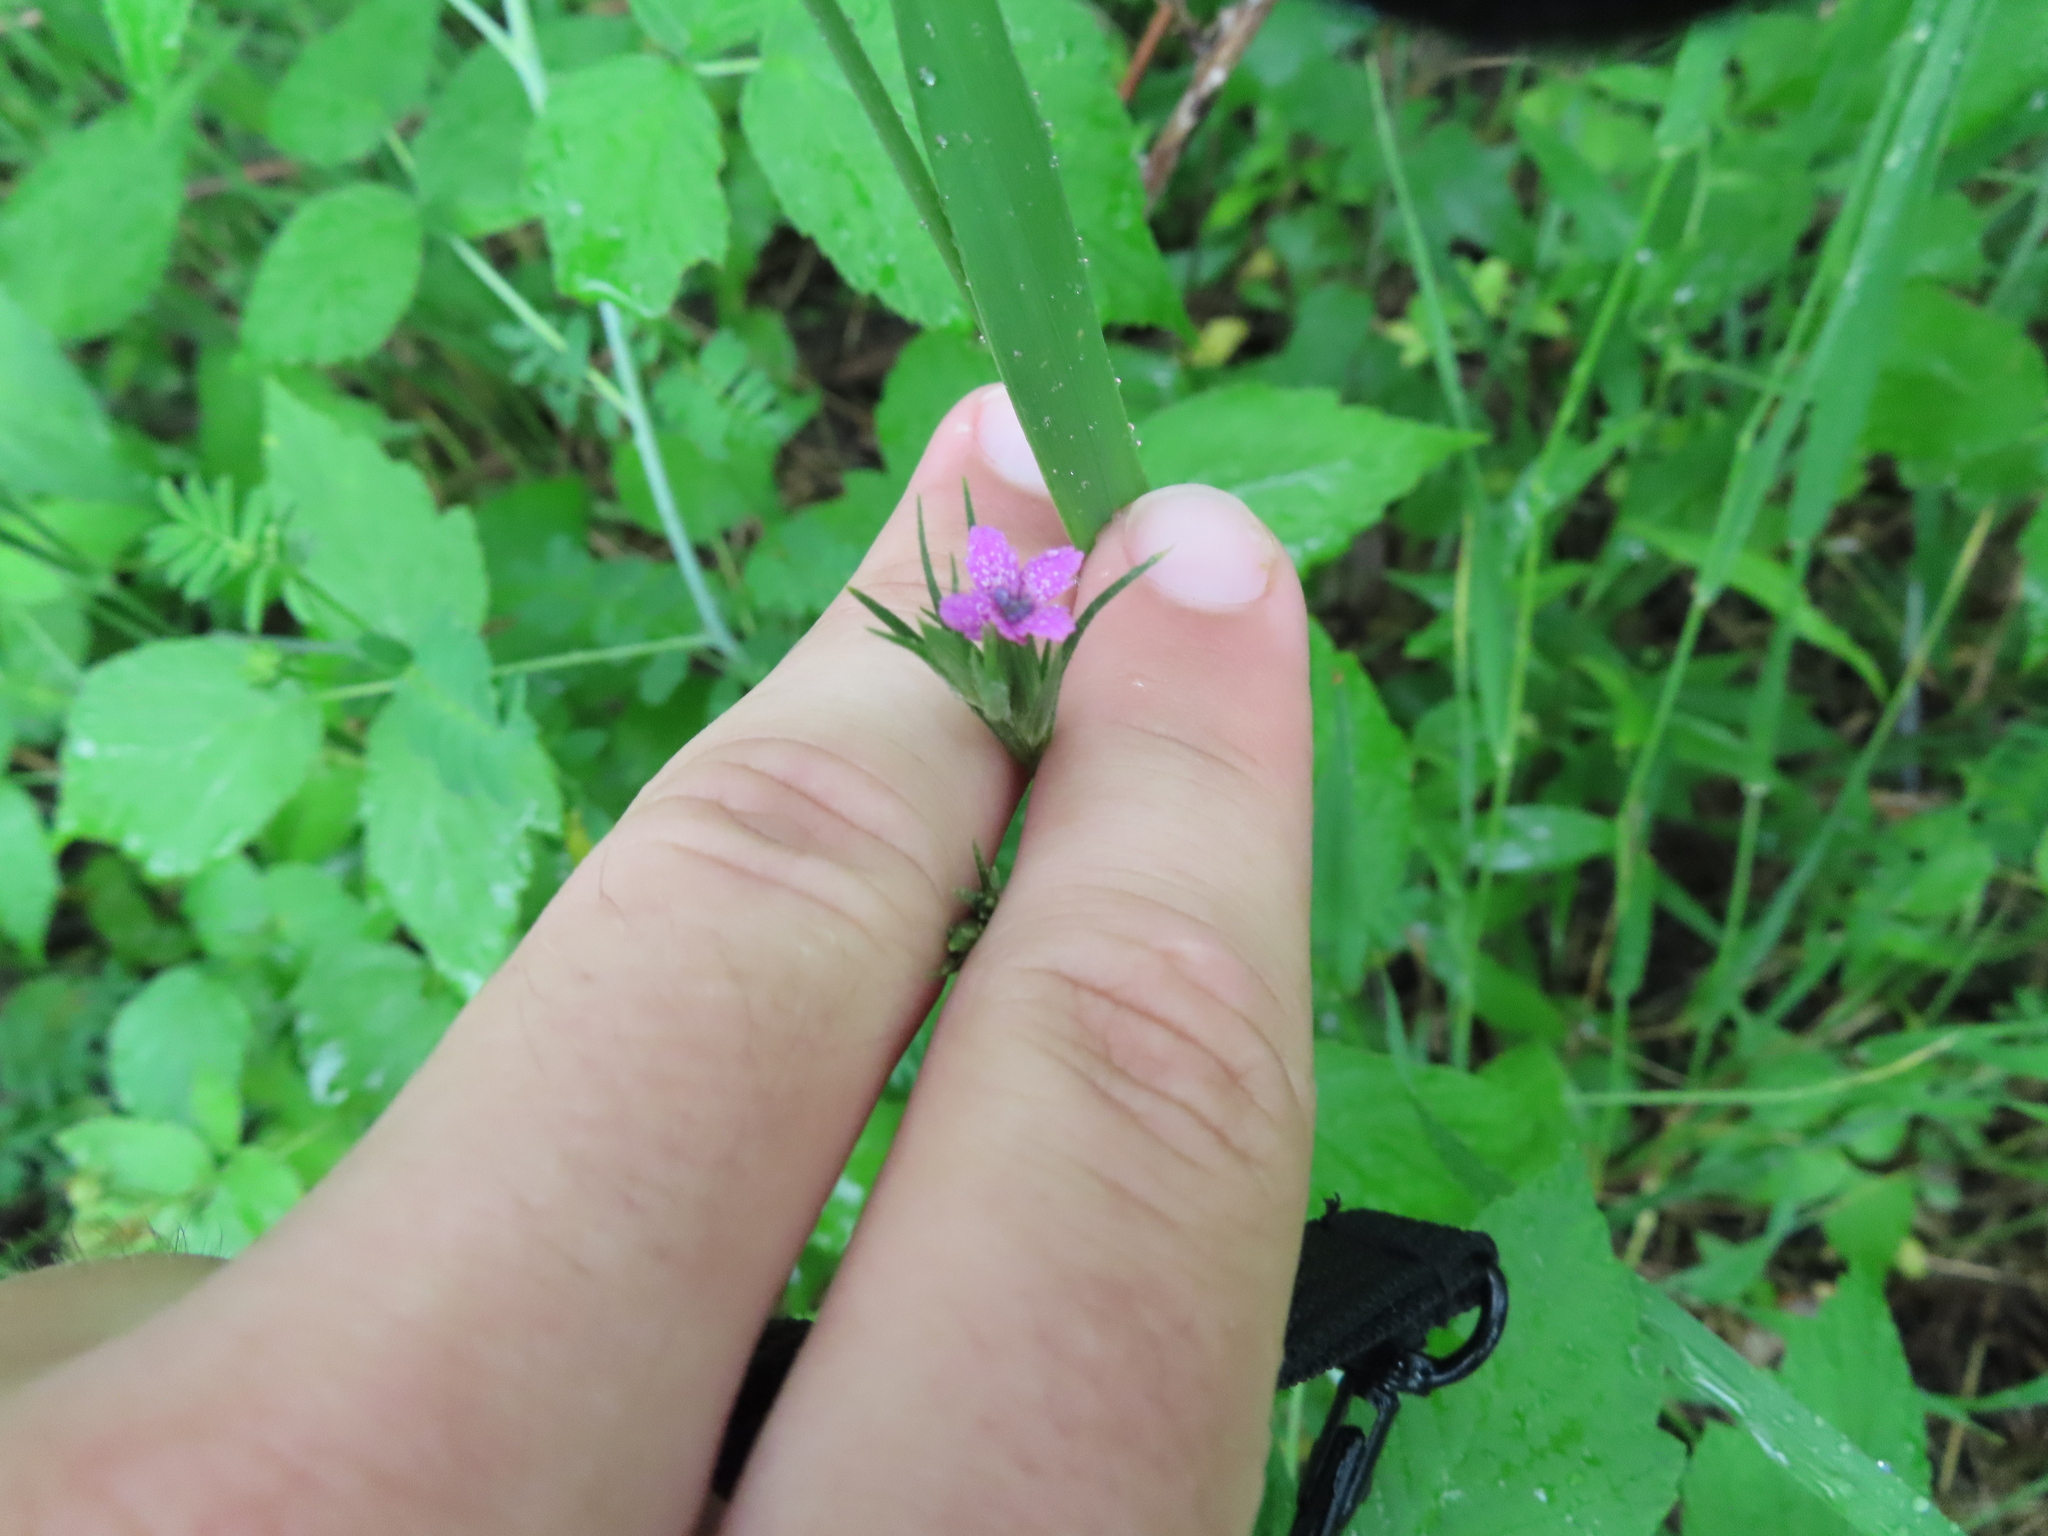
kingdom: Plantae
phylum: Tracheophyta
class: Magnoliopsida
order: Caryophyllales
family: Caryophyllaceae
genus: Dianthus
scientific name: Dianthus armeria
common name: Deptford pink
